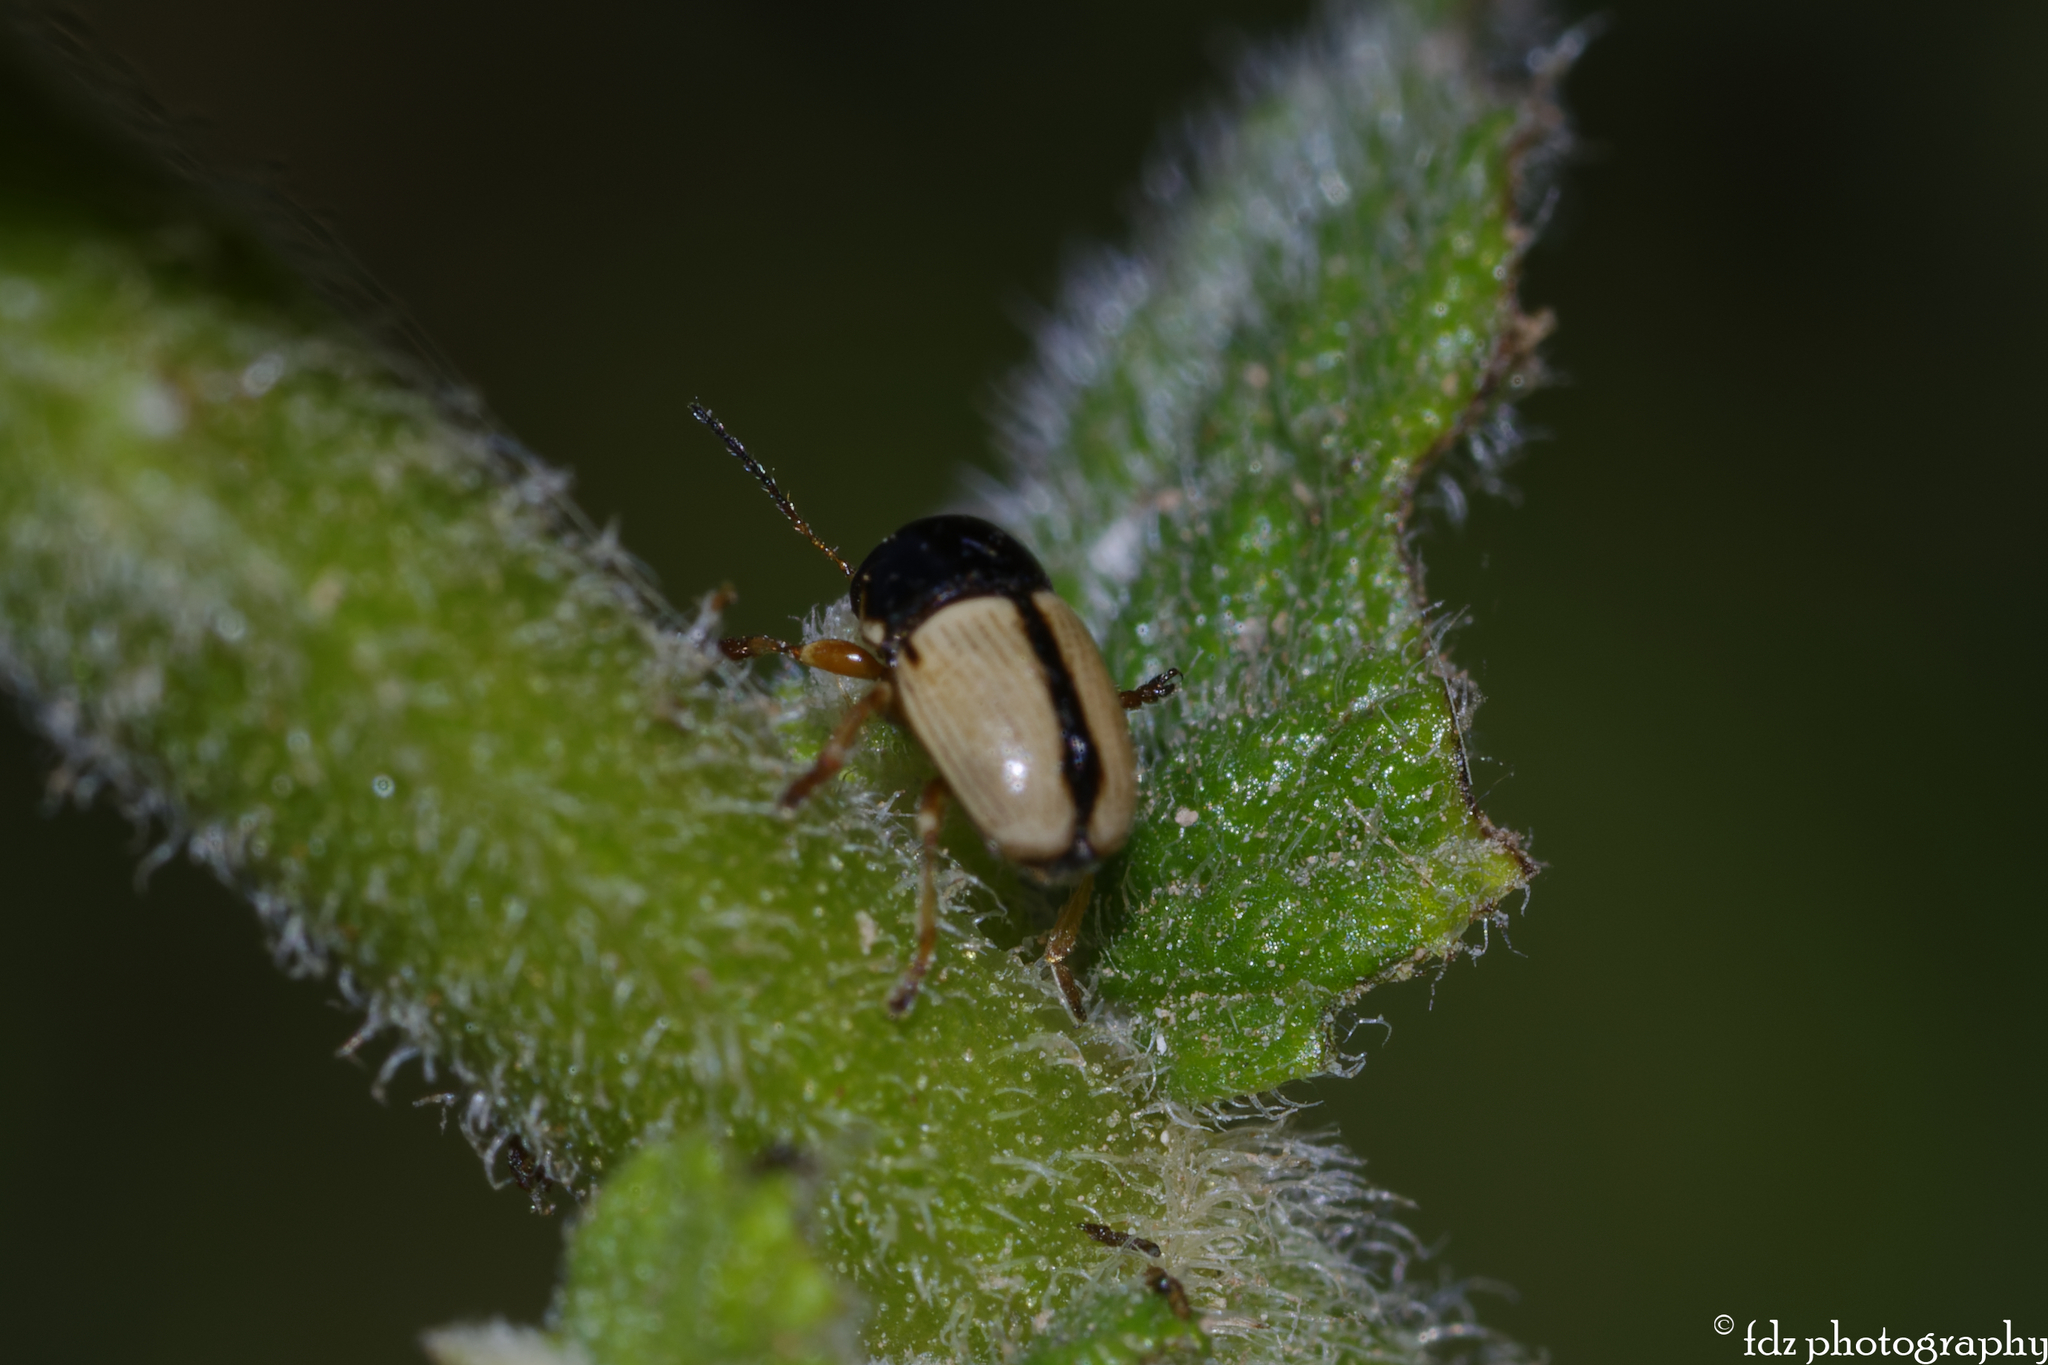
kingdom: Animalia
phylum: Arthropoda
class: Insecta
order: Coleoptera
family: Chrysomelidae
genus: Cryptocephalus
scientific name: Cryptocephalus pygmaeus
